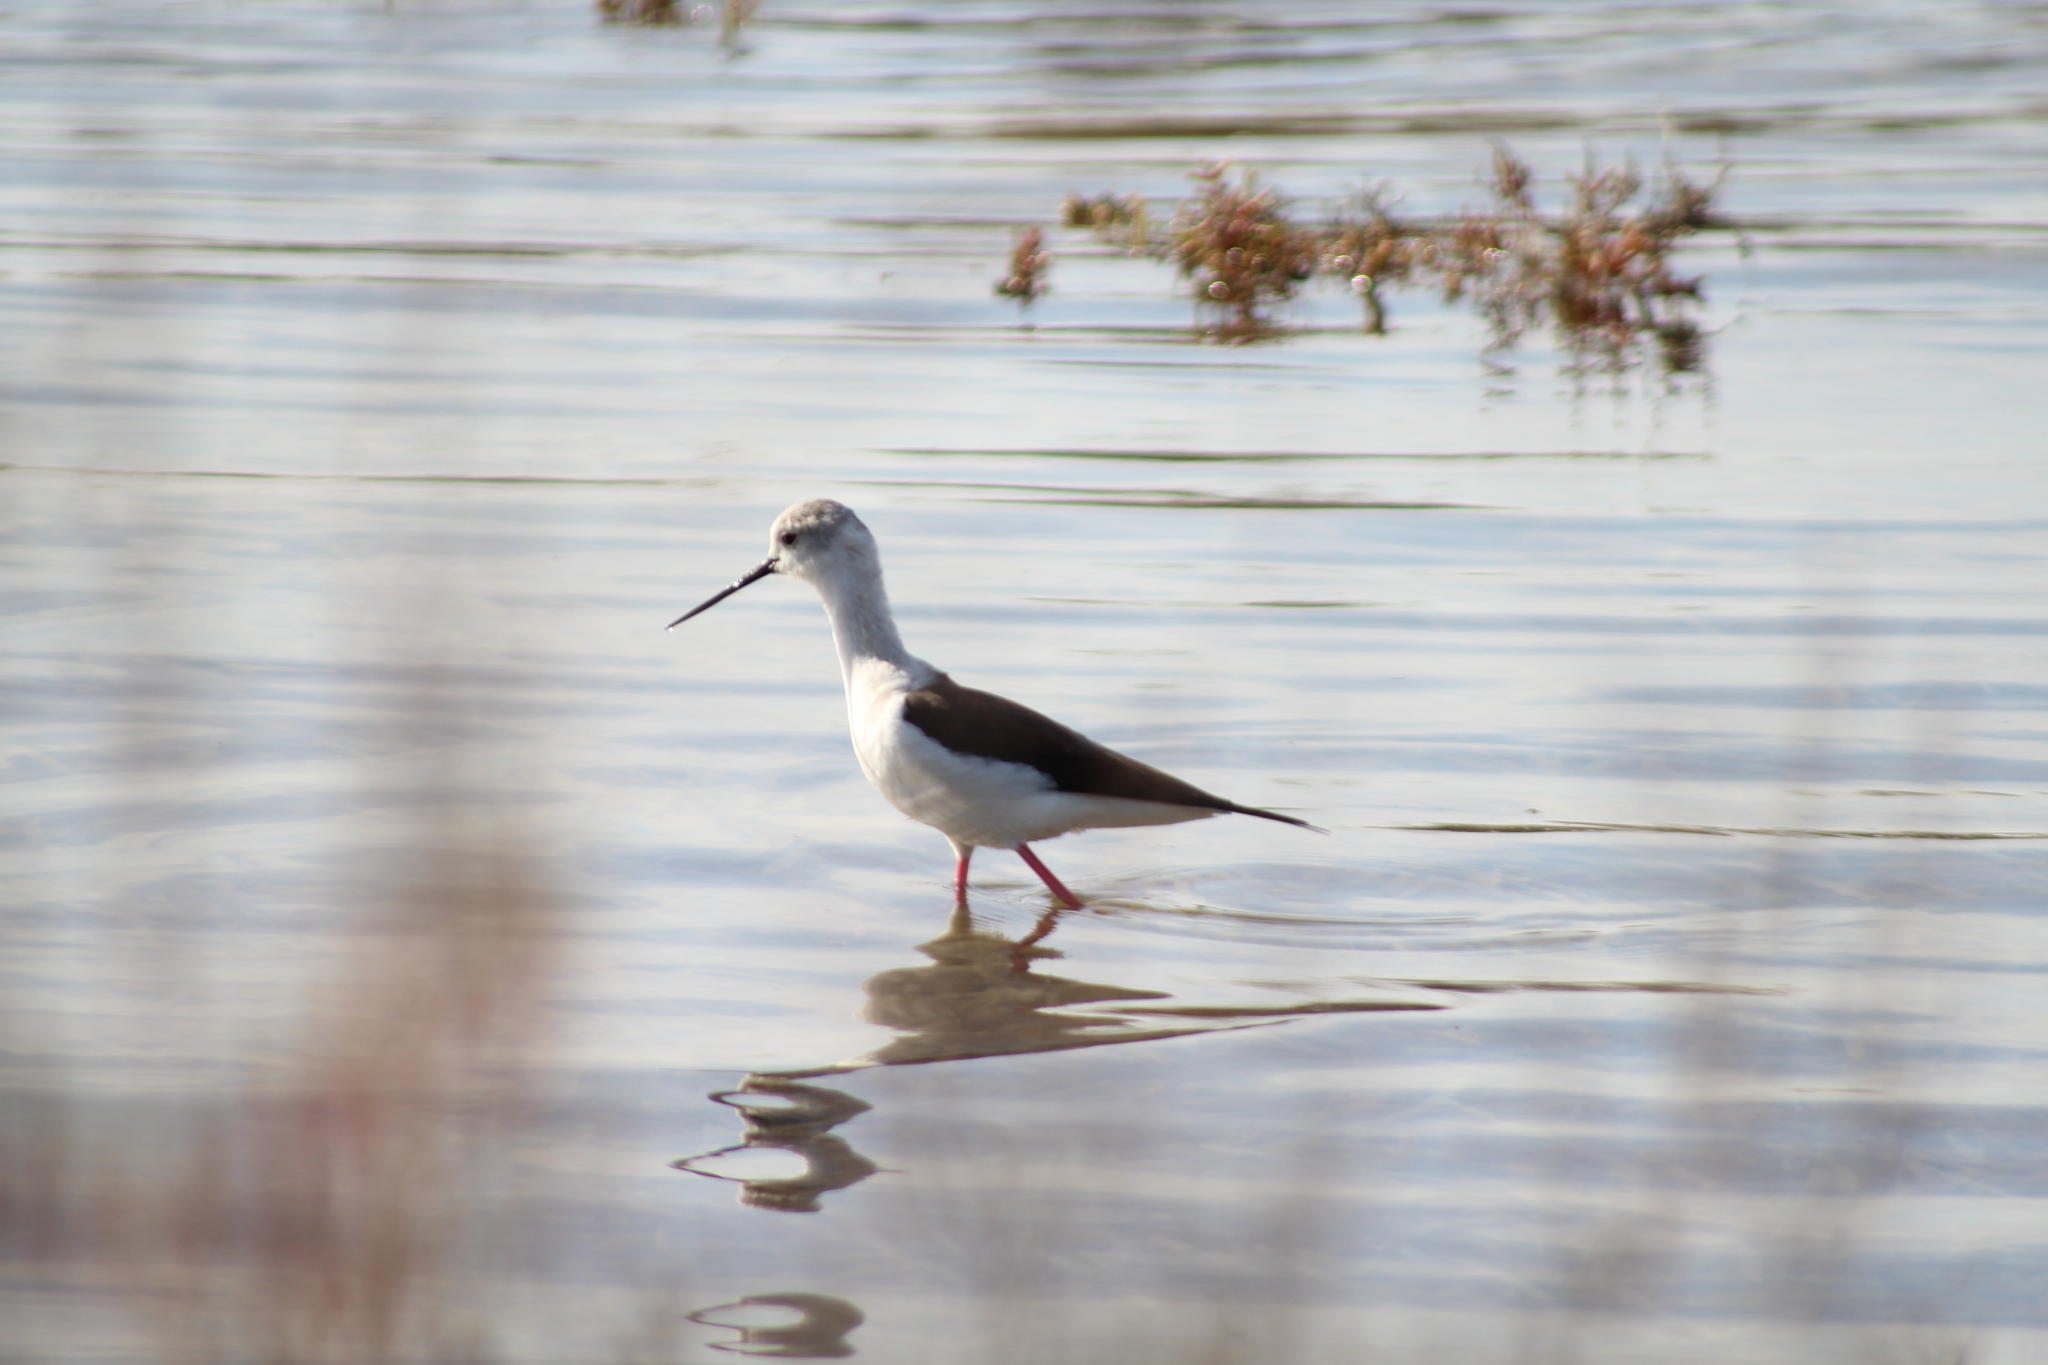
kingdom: Animalia
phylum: Chordata
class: Aves
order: Charadriiformes
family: Recurvirostridae
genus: Himantopus
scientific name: Himantopus himantopus
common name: Black-winged stilt
